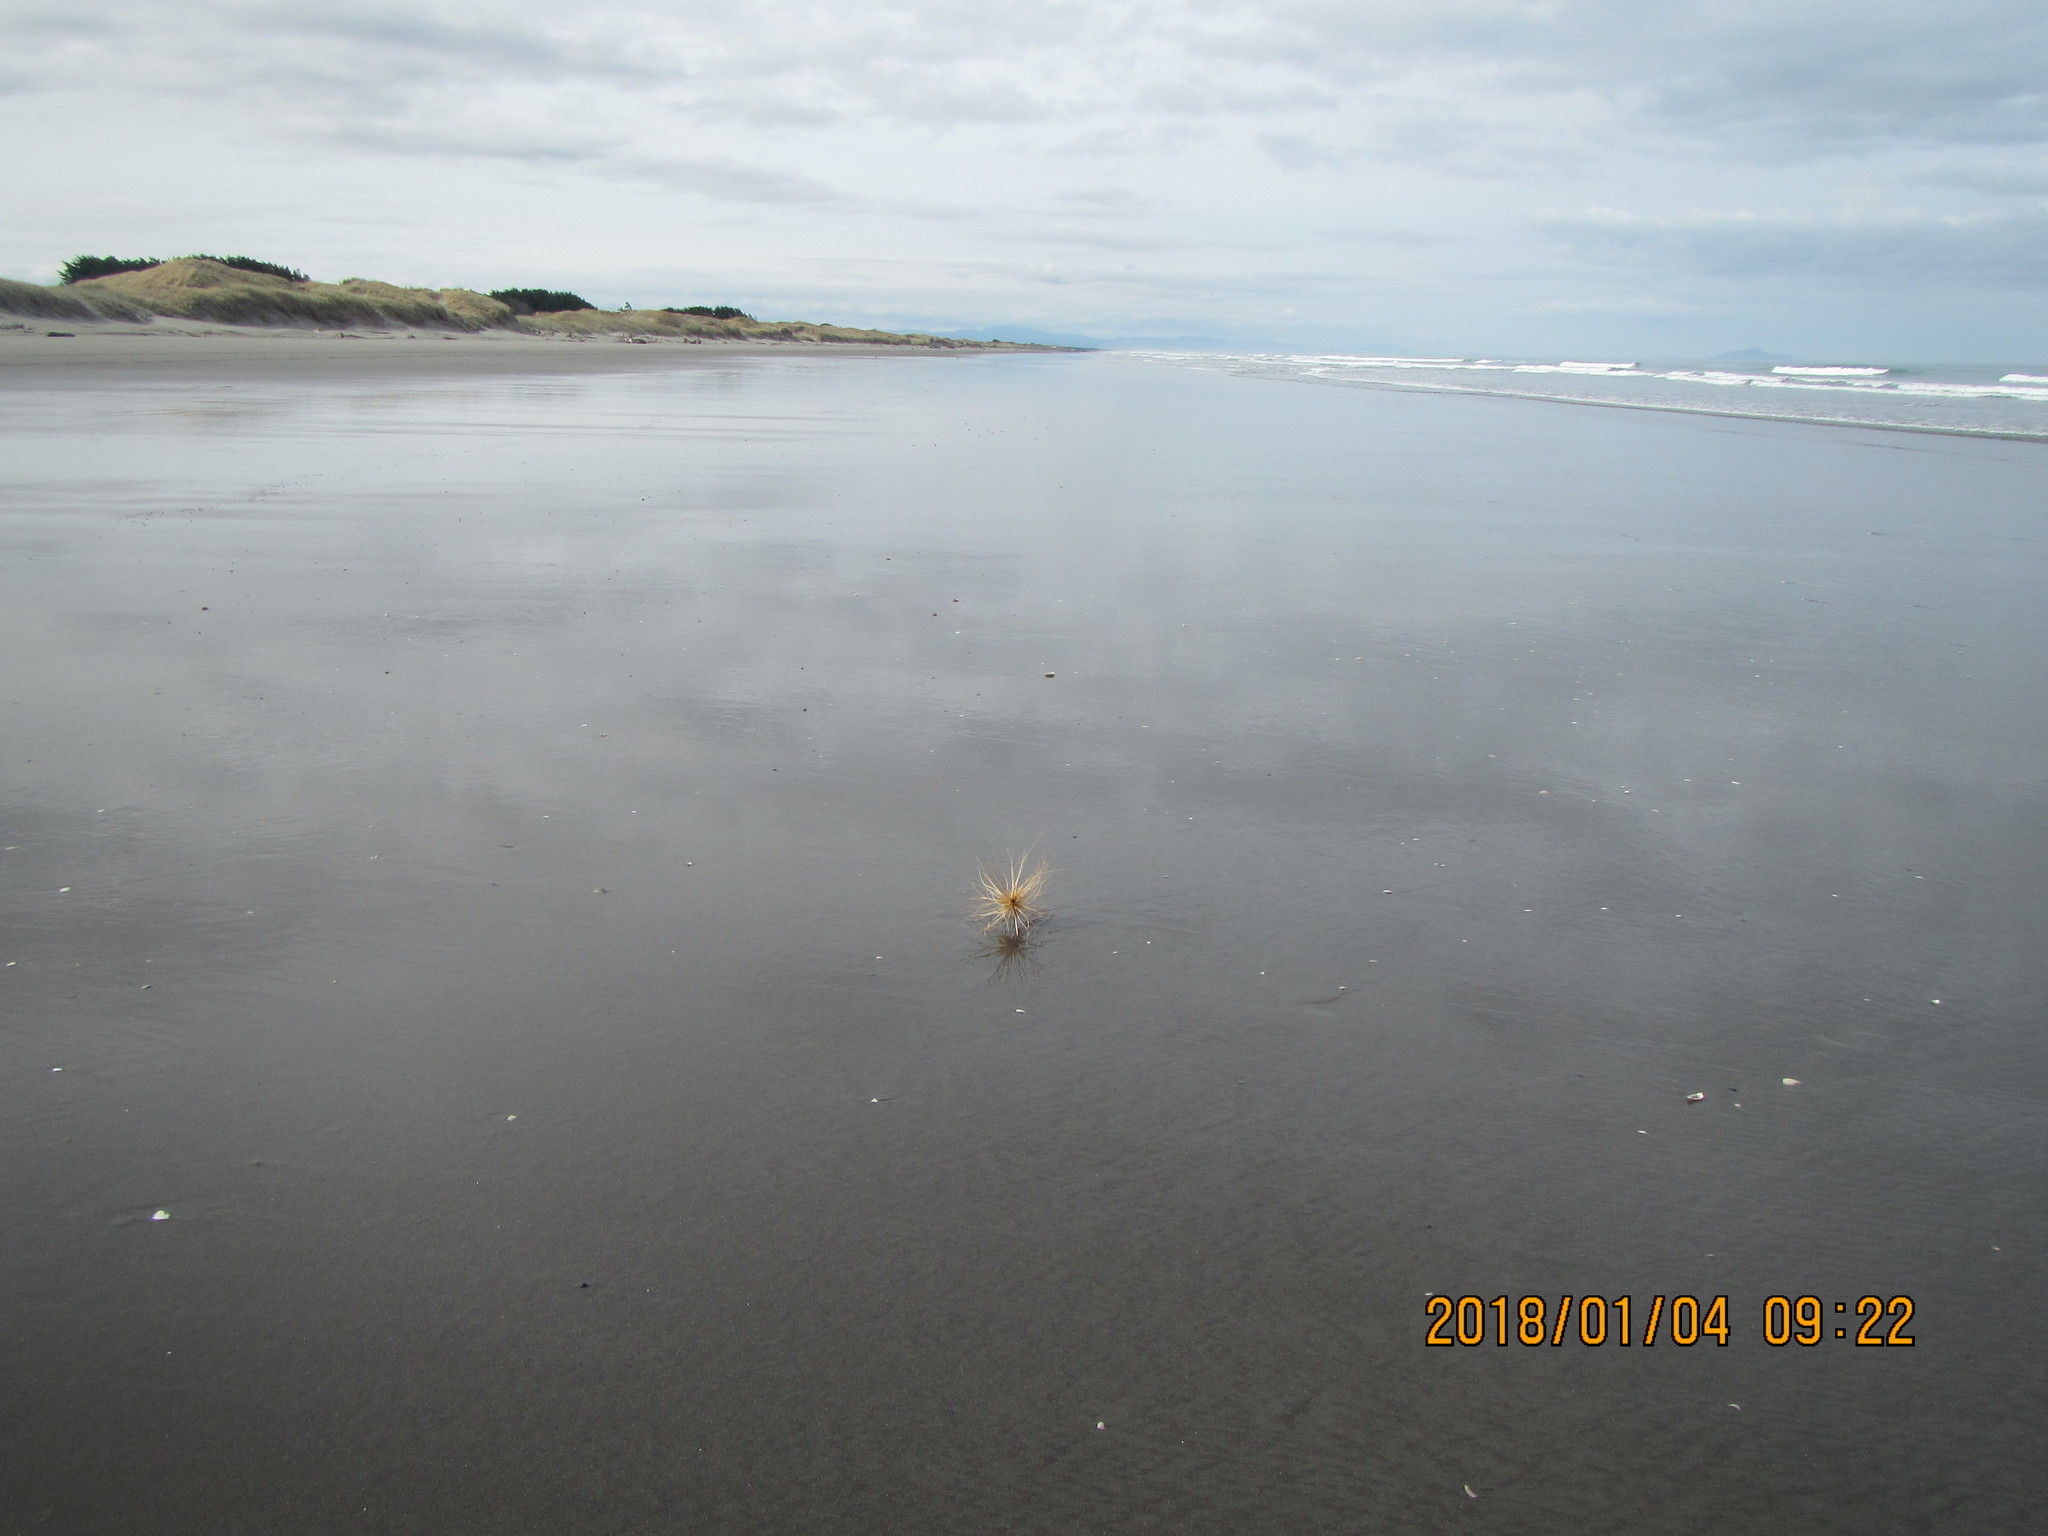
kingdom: Plantae
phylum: Tracheophyta
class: Liliopsida
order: Poales
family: Poaceae
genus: Spinifex
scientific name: Spinifex sericeus
